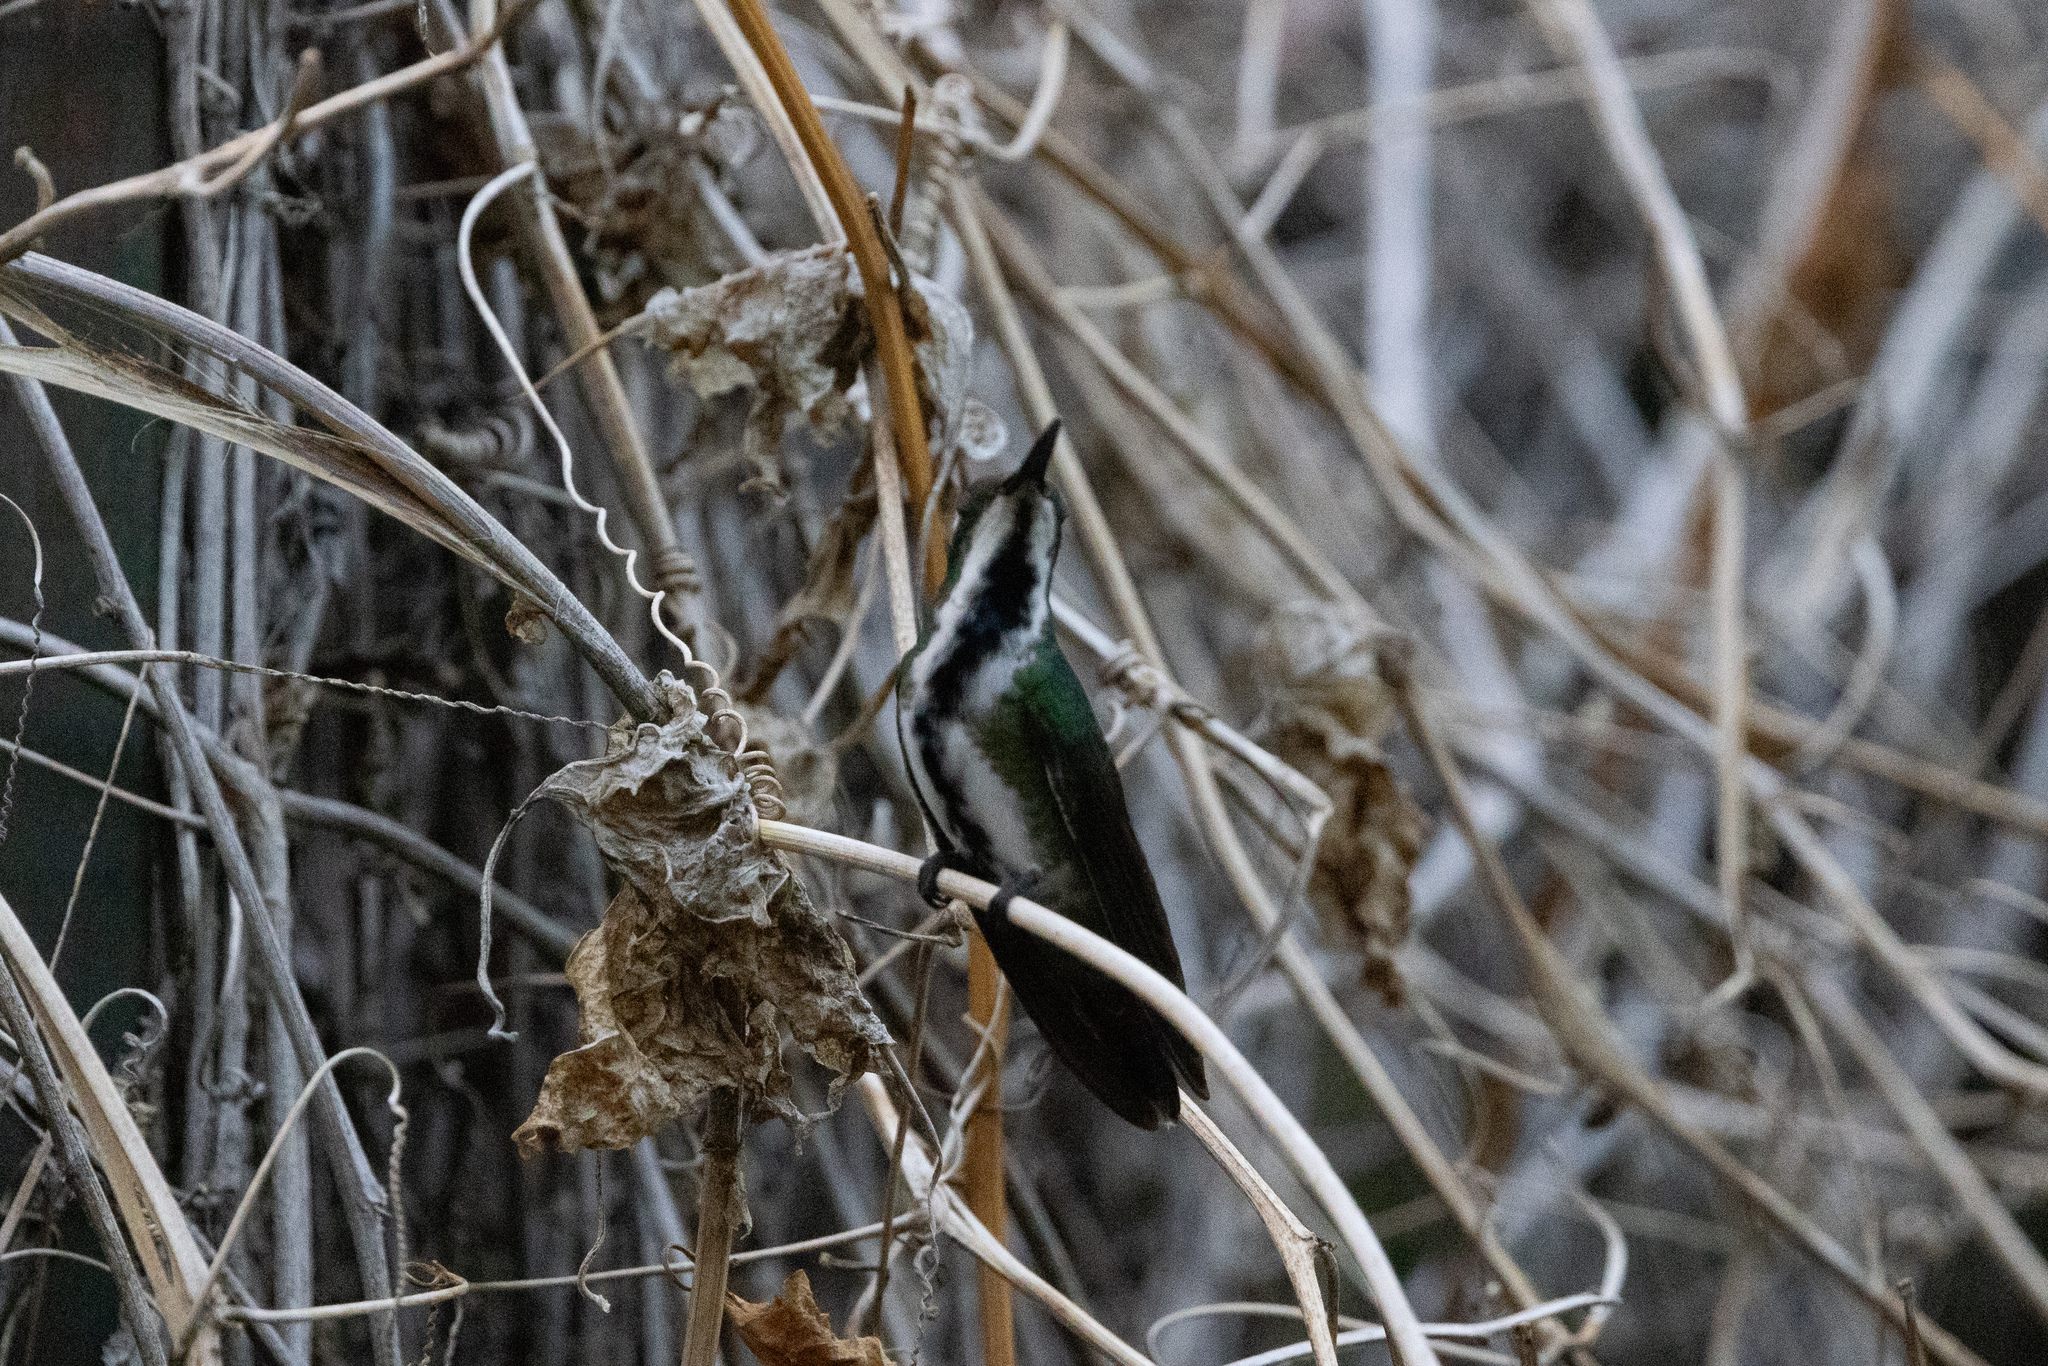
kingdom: Animalia
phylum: Chordata
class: Aves
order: Apodiformes
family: Trochilidae
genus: Anthracothorax
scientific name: Anthracothorax nigricollis
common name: Black-throated mango
